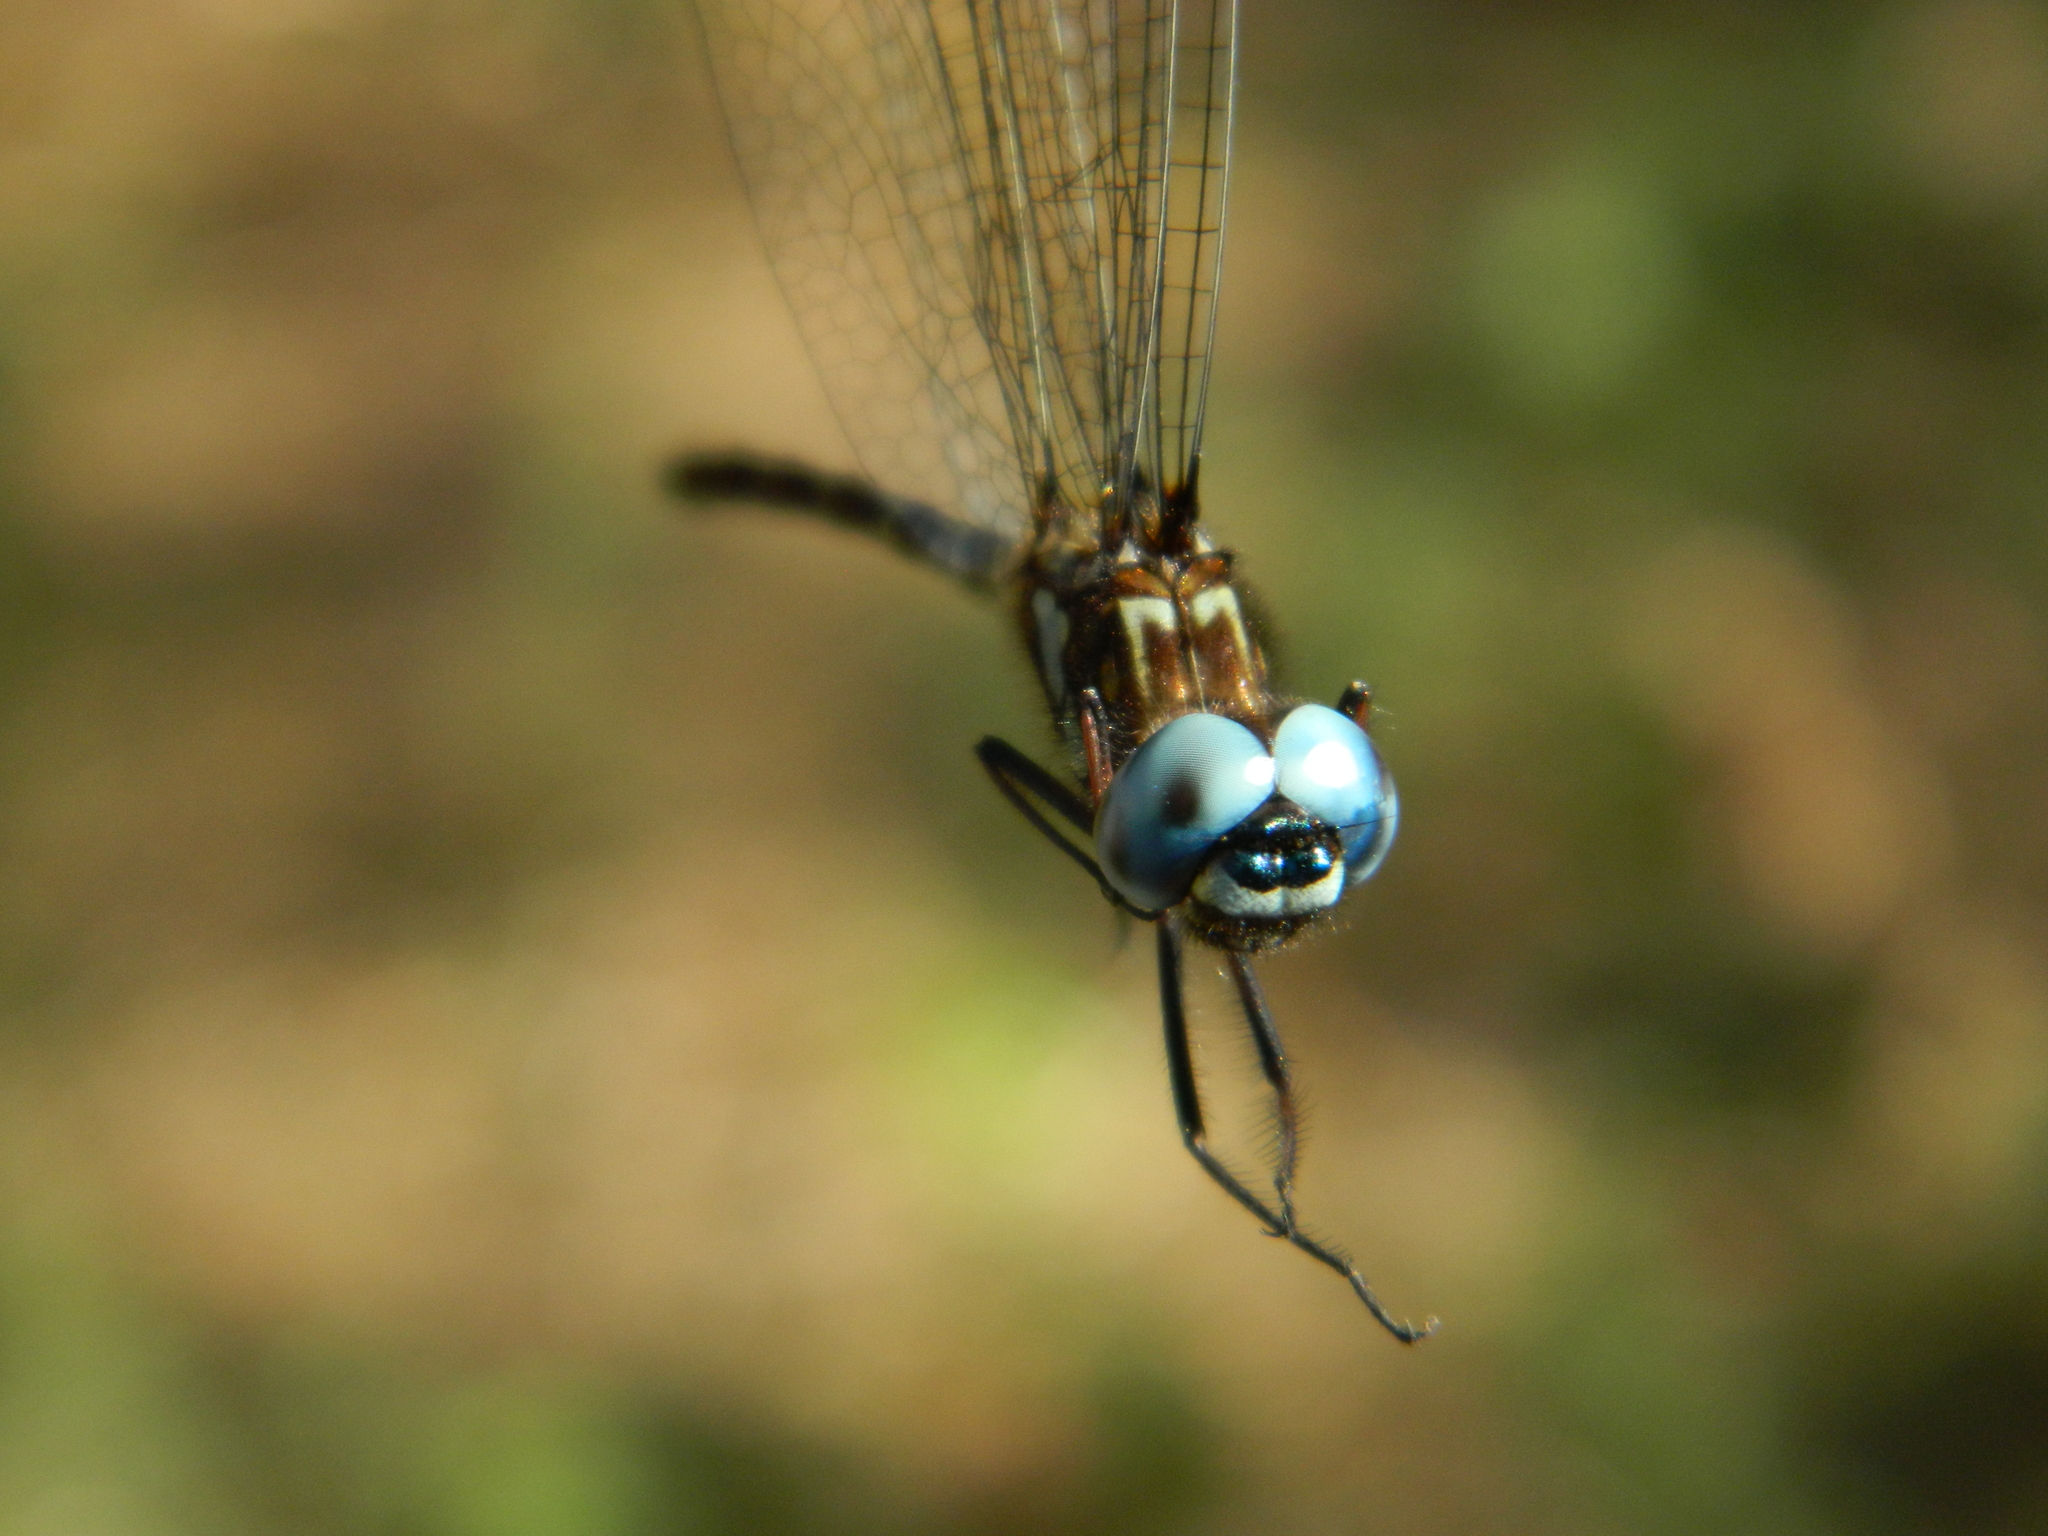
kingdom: Animalia
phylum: Arthropoda
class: Insecta
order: Odonata
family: Libellulidae
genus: Macrothemis
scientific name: Macrothemis celeno
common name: Antillean sylph
